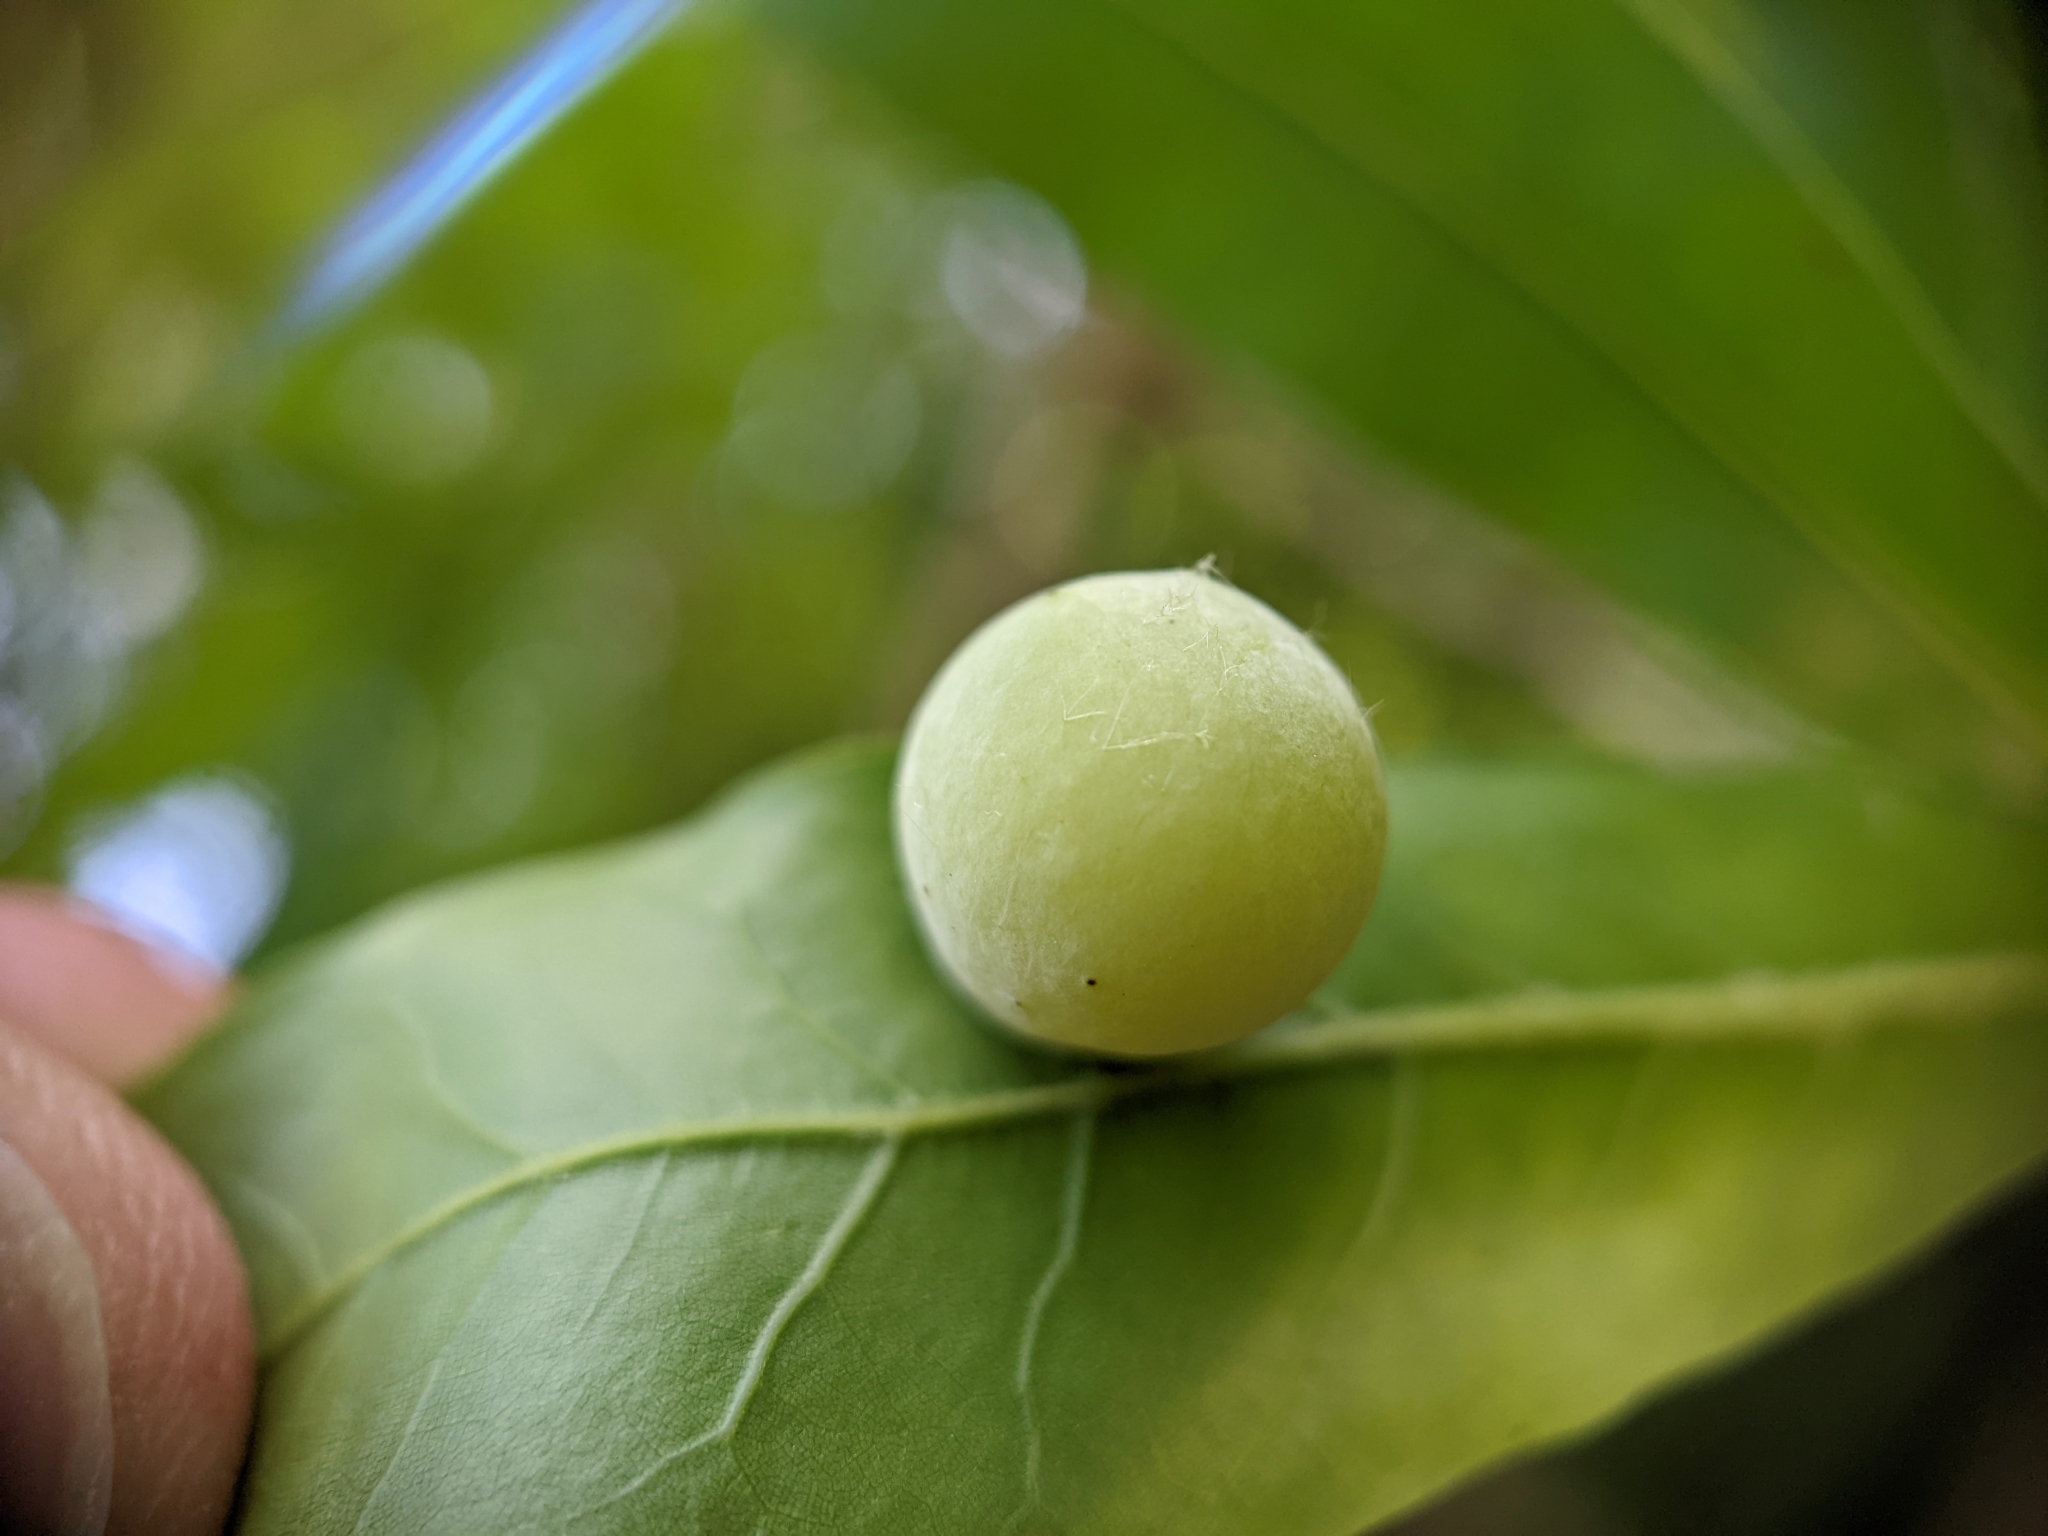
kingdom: Animalia
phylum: Arthropoda
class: Insecta
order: Hymenoptera
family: Cynipidae
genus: Amphibolips
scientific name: Amphibolips
